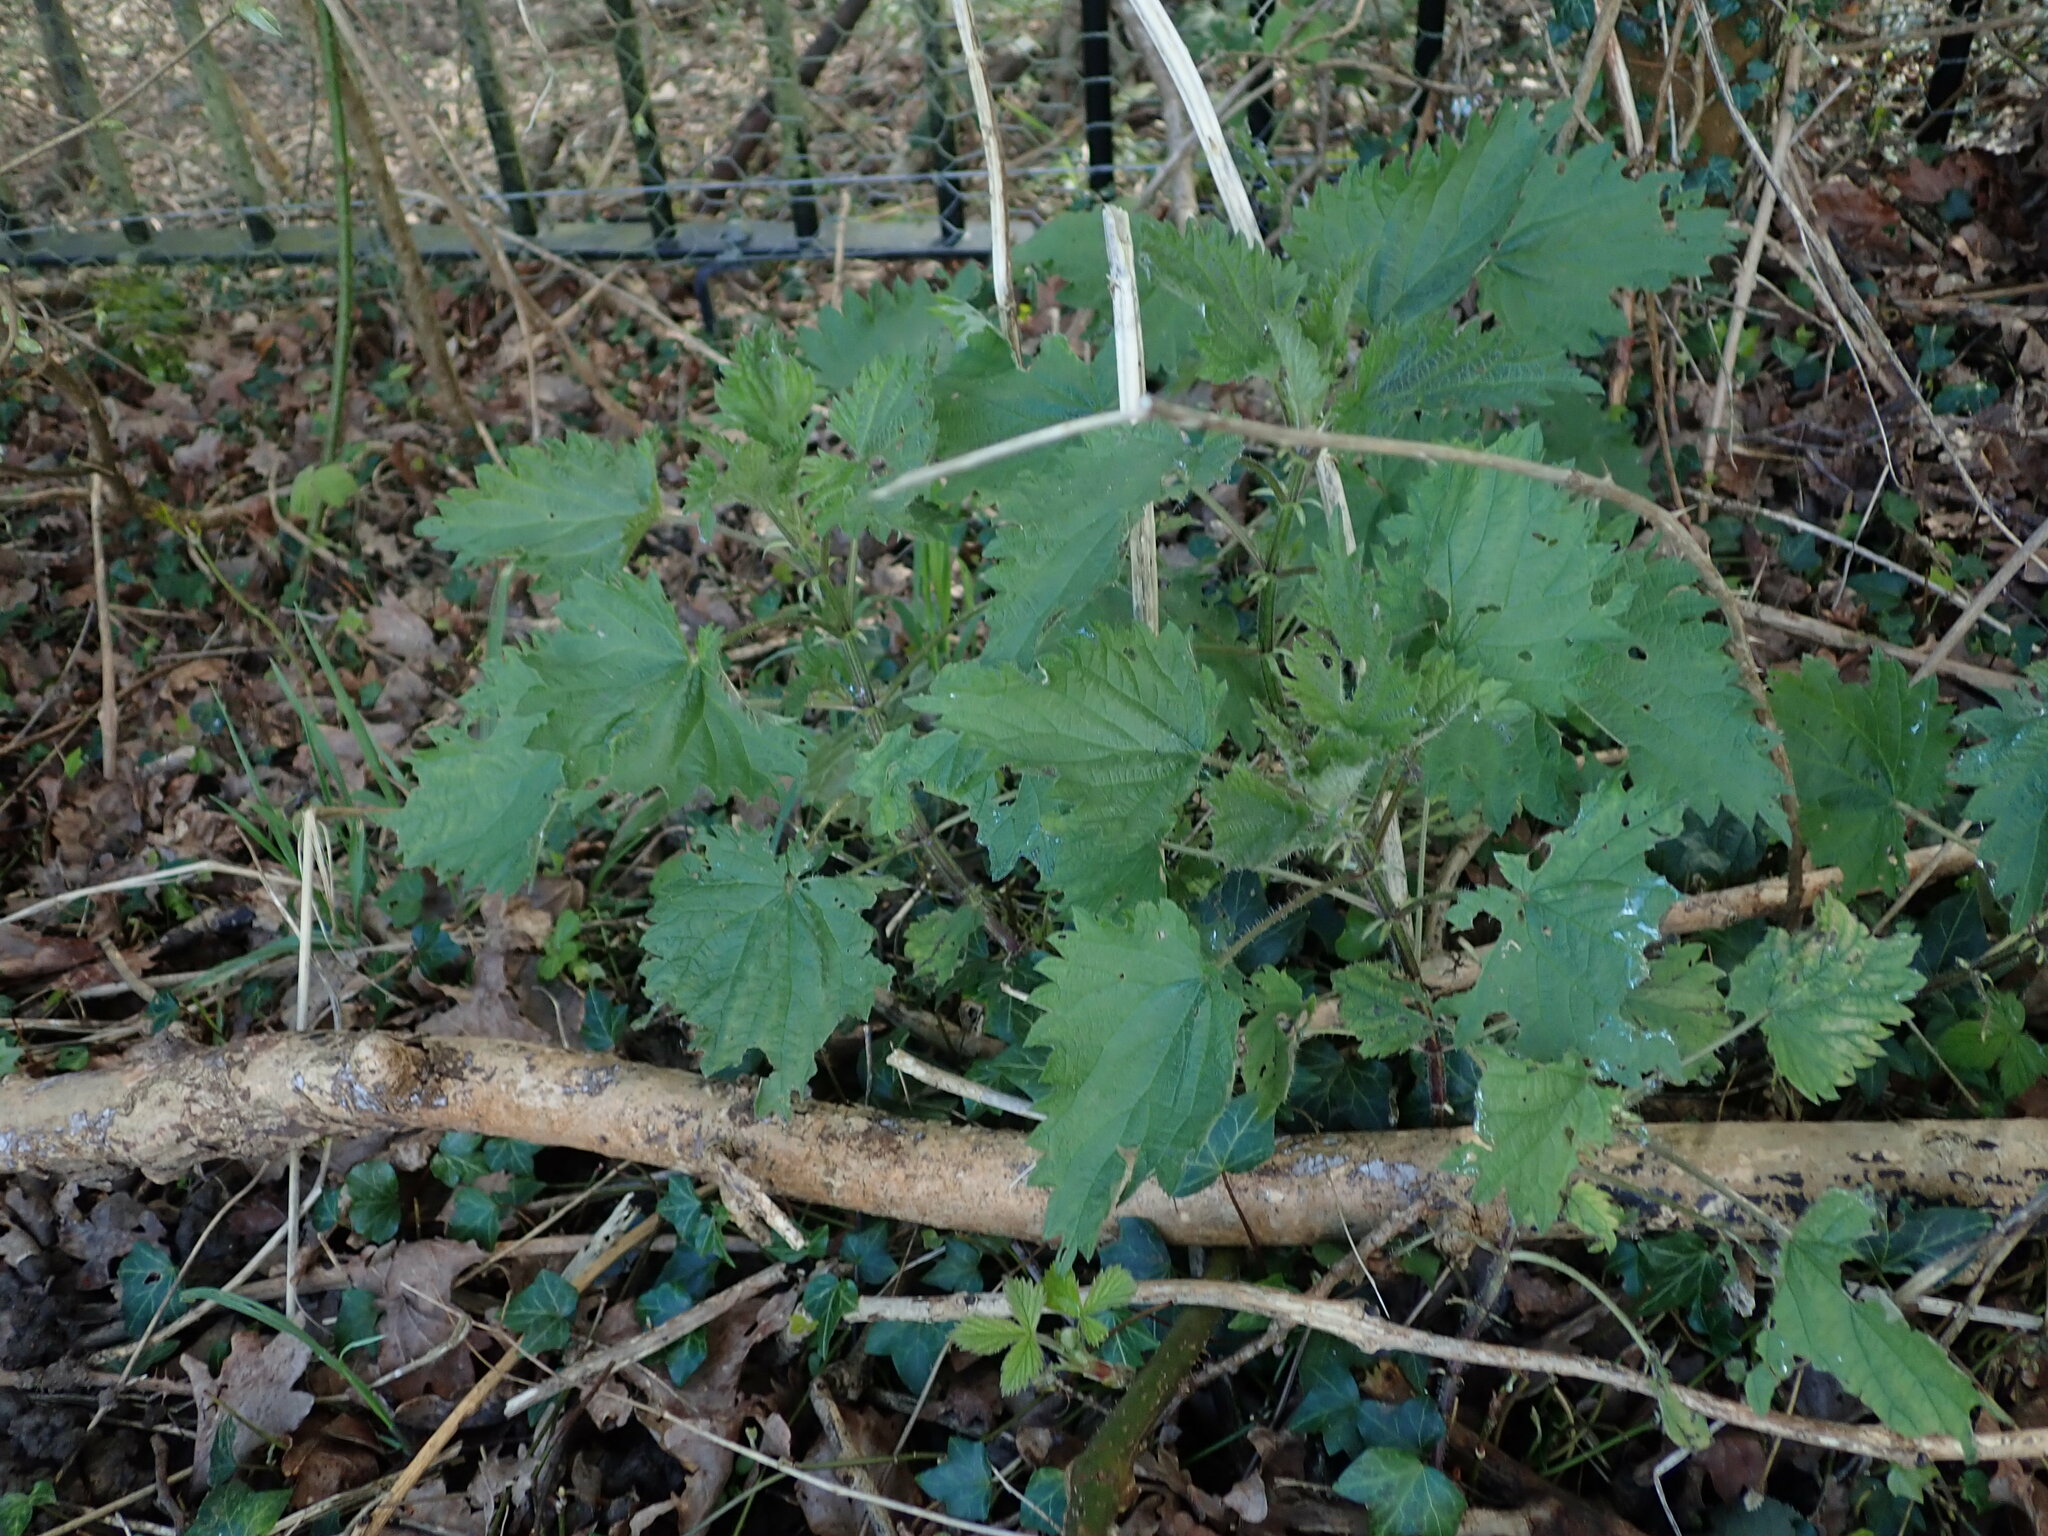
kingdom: Plantae
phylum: Tracheophyta
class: Magnoliopsida
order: Rosales
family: Urticaceae
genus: Urtica
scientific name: Urtica dioica
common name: Common nettle
